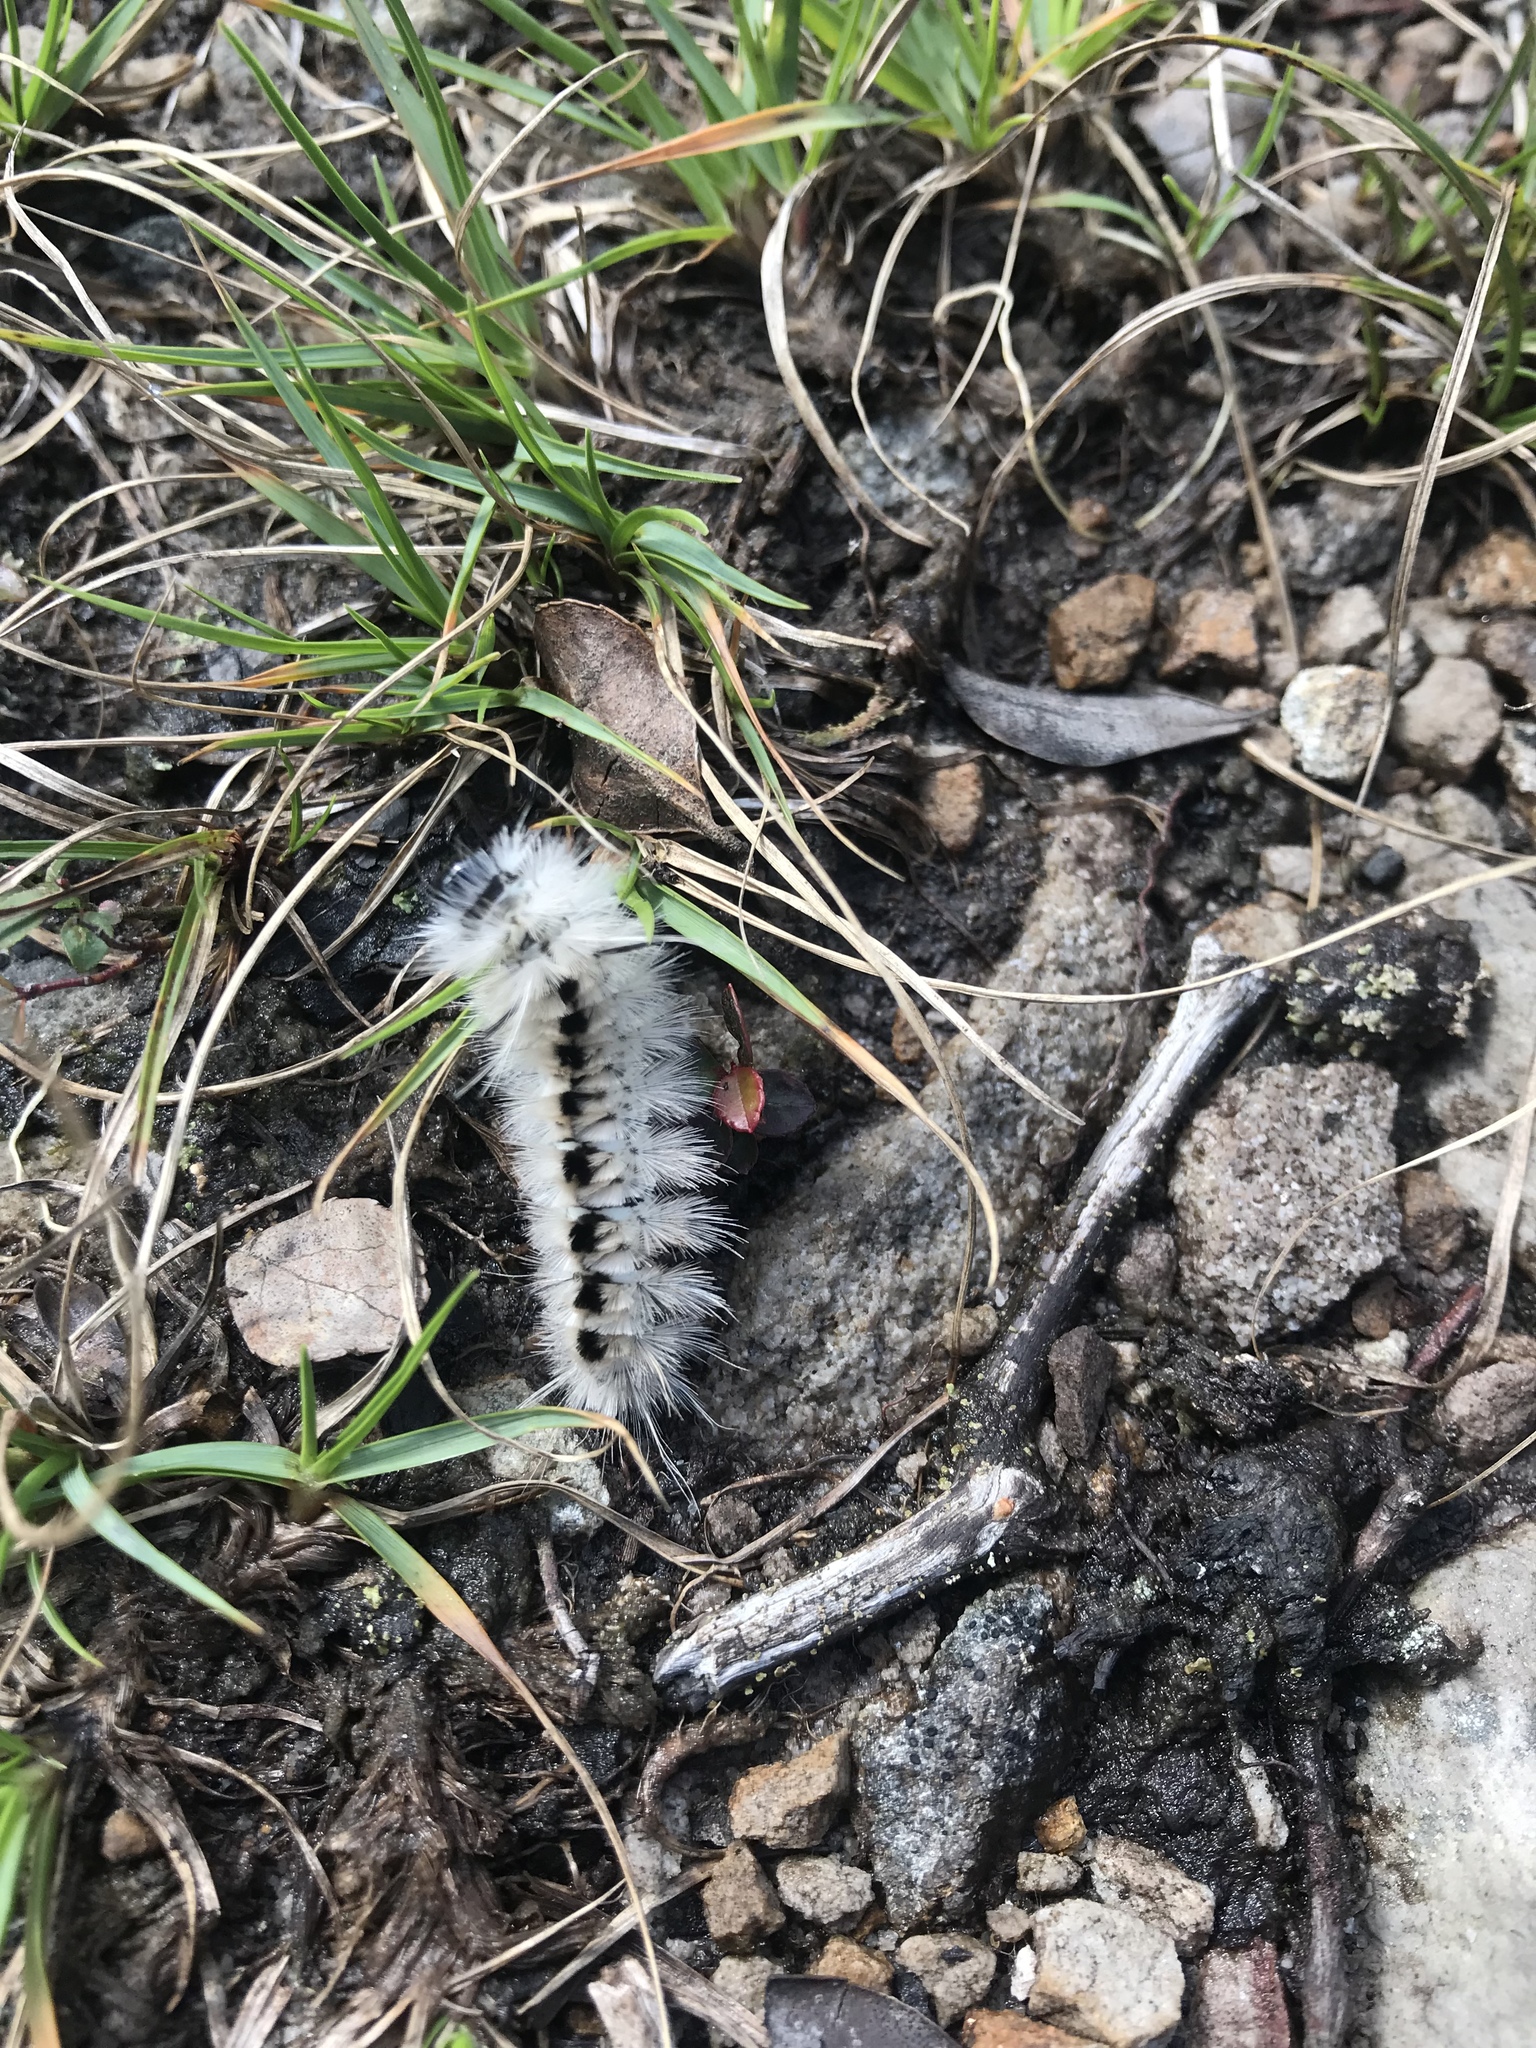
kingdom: Animalia
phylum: Arthropoda
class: Insecta
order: Lepidoptera
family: Erebidae
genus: Lophocampa
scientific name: Lophocampa caryae
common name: Hickory tussock moth
